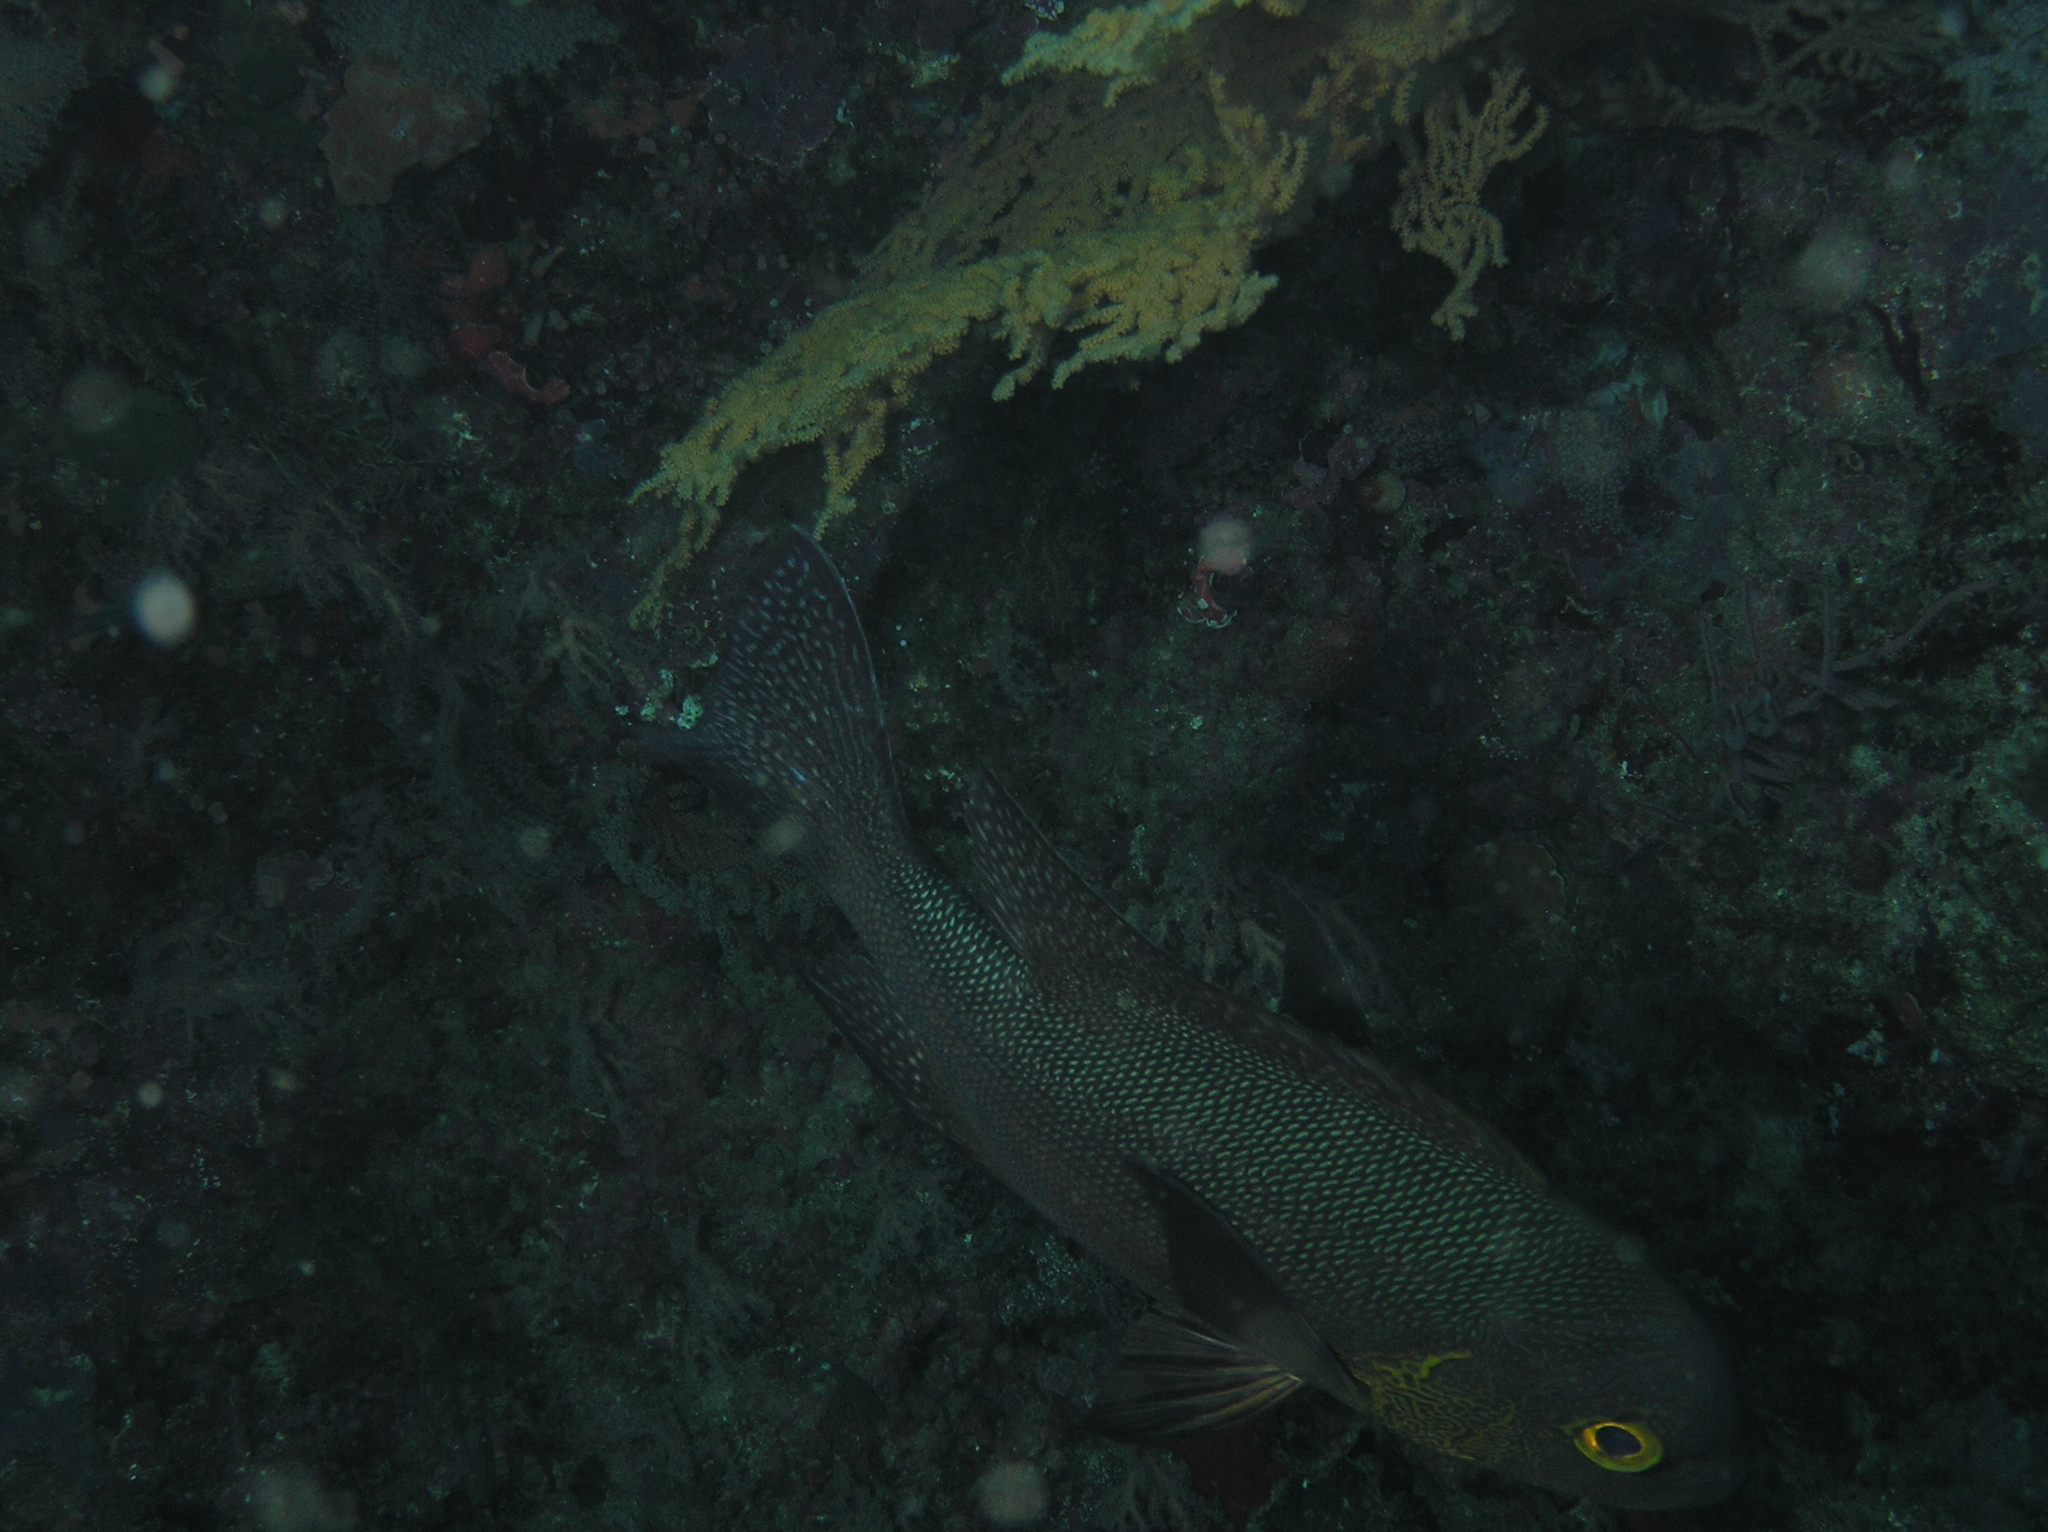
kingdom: Animalia
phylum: Chordata
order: Perciformes
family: Lutjanidae
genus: Macolor
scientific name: Macolor macularis
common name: Midnight snapper
